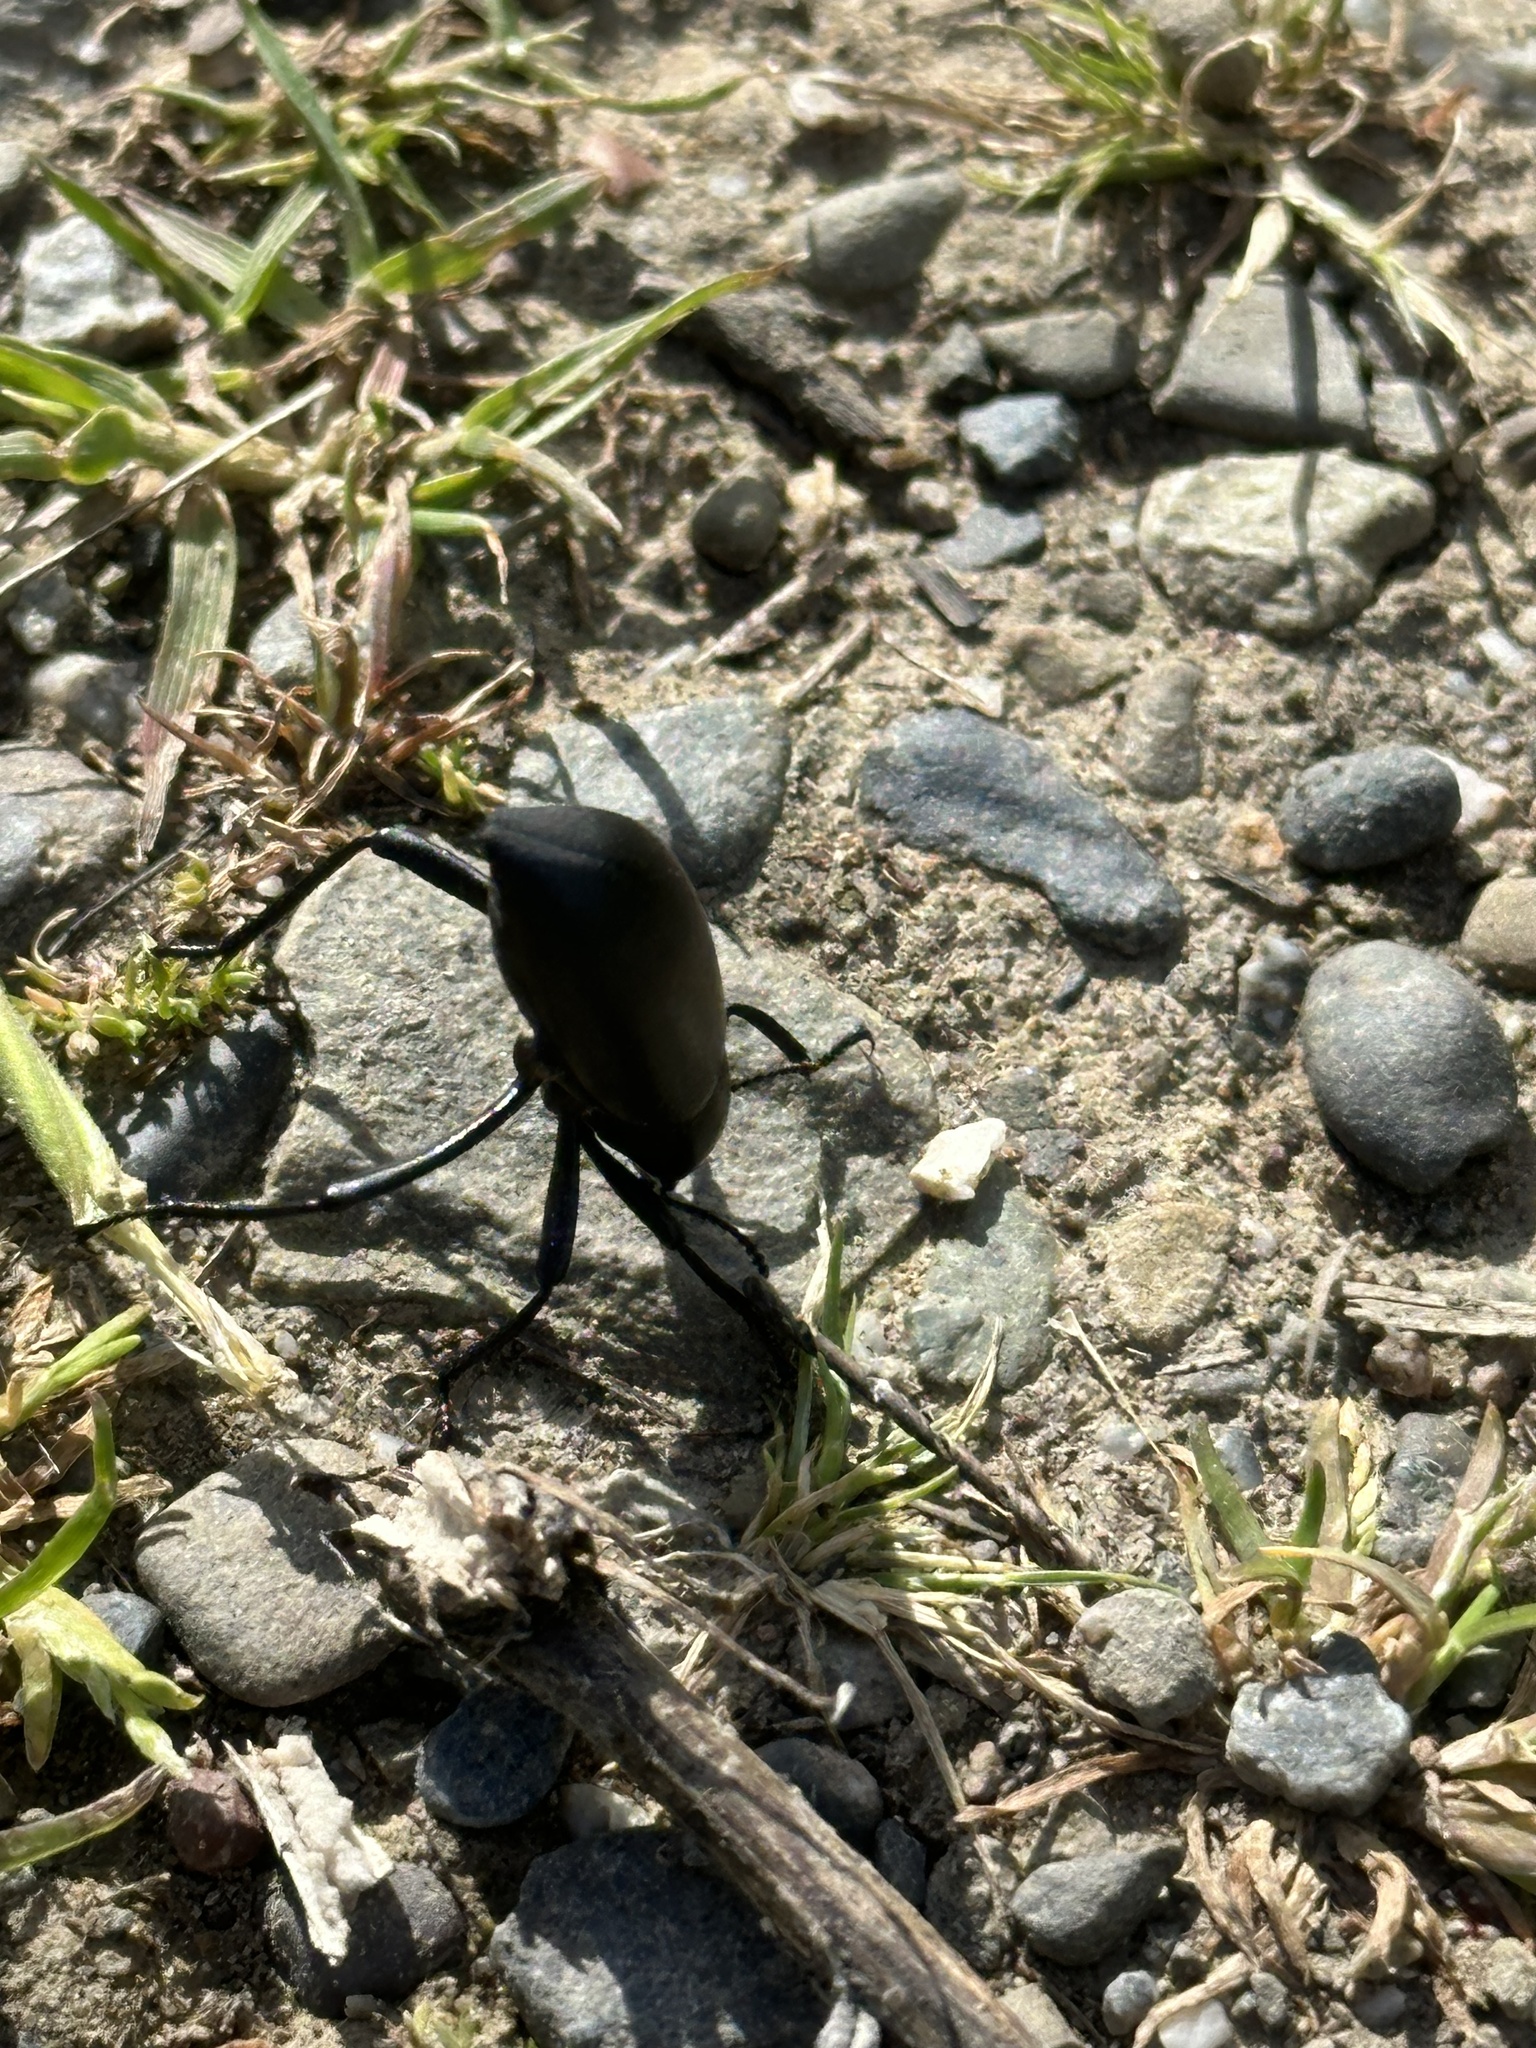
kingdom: Animalia
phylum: Arthropoda
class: Insecta
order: Coleoptera
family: Tenebrionidae
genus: Eleodes
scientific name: Eleodes dentipes
